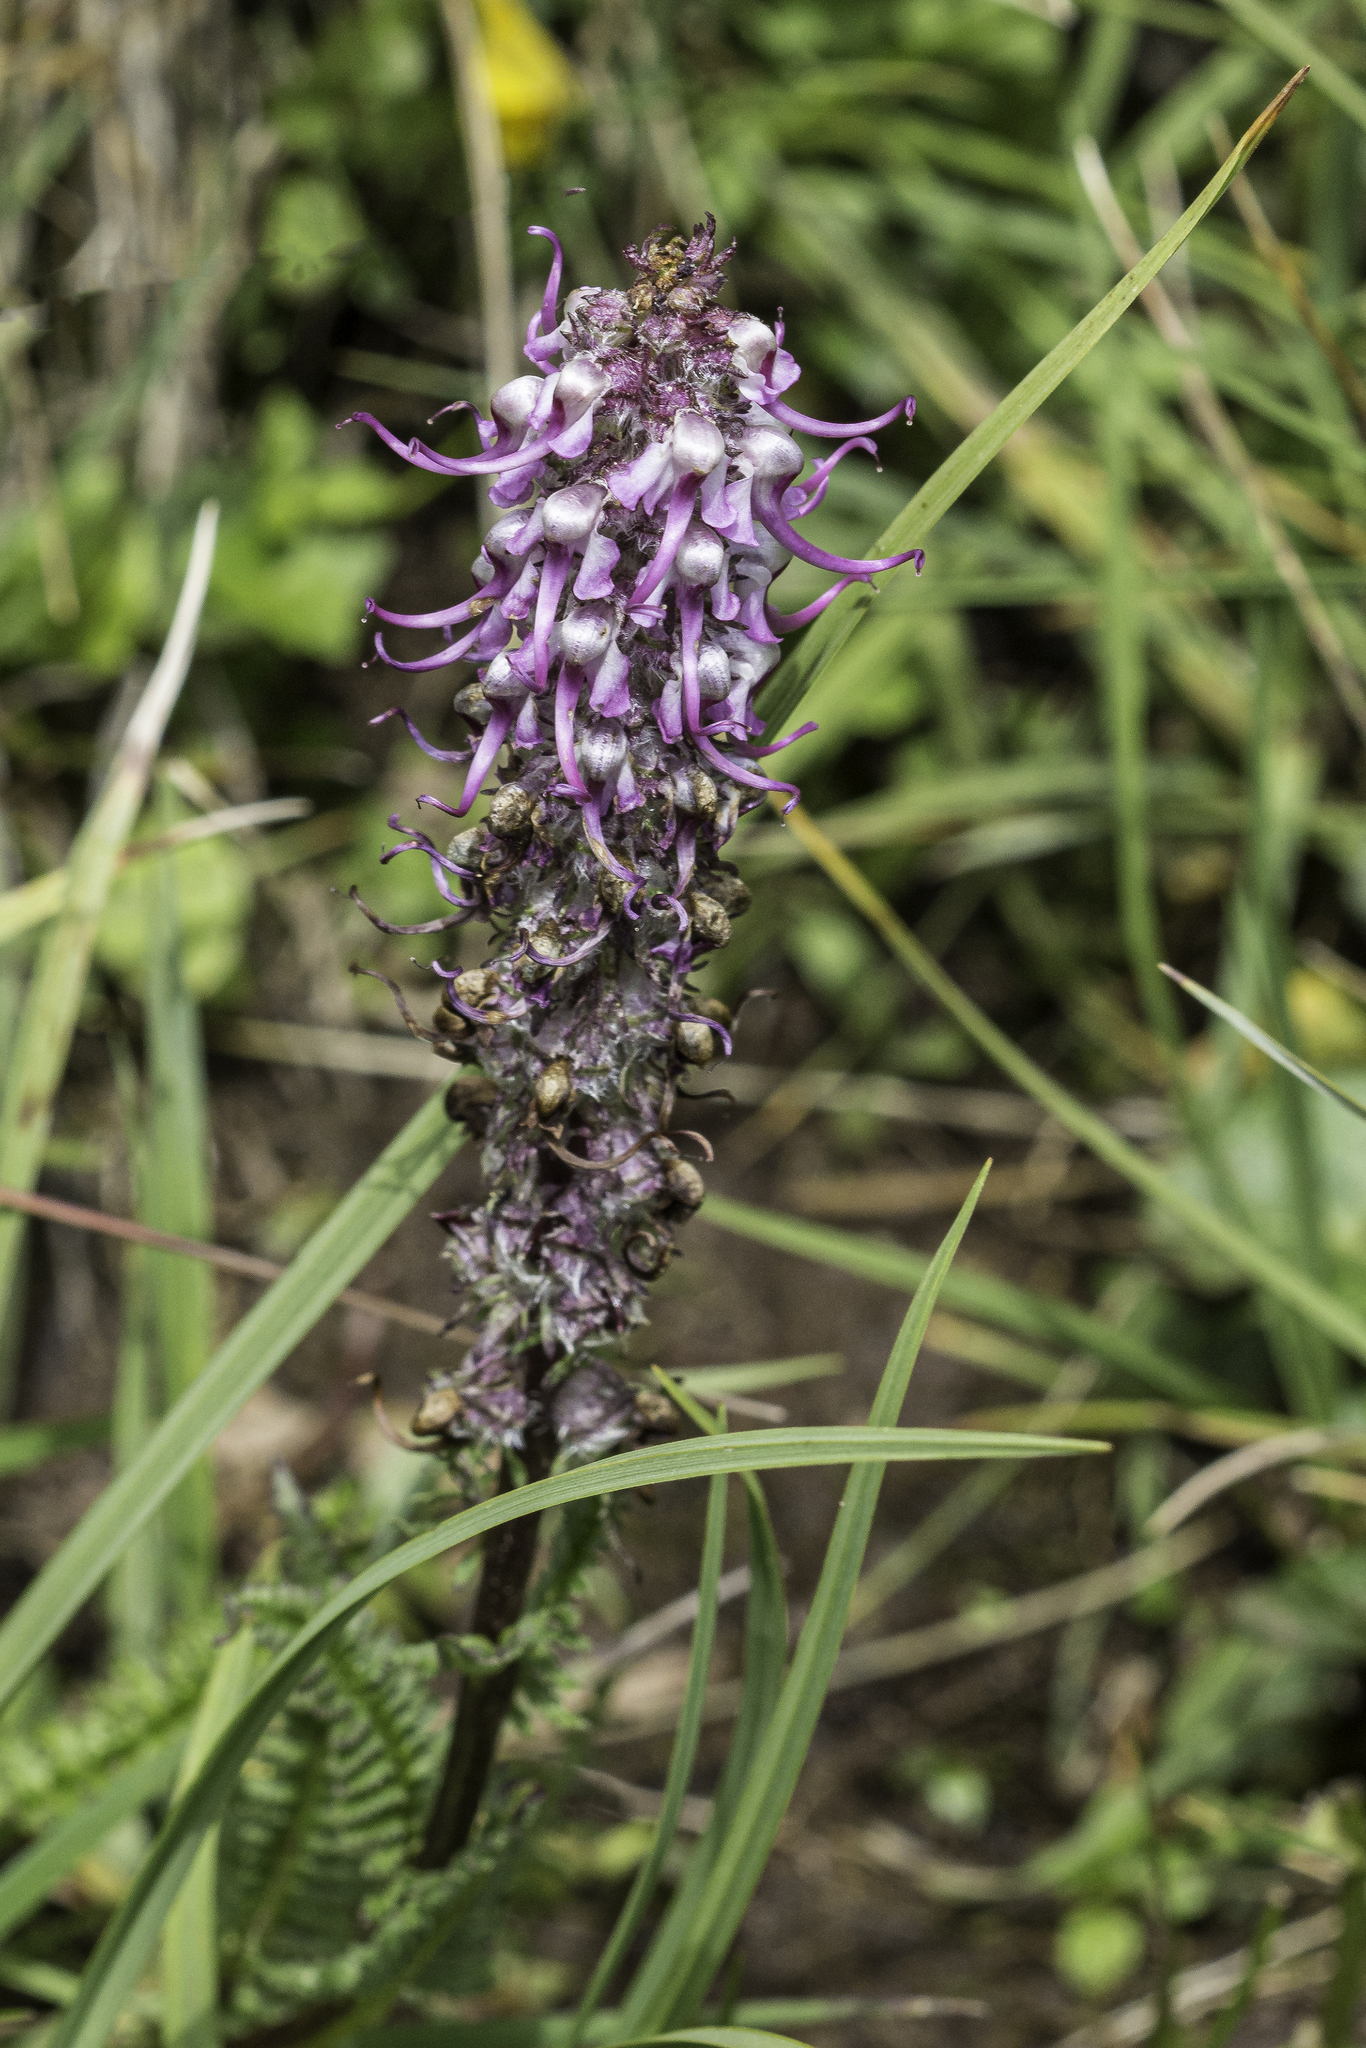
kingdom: Plantae
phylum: Tracheophyta
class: Magnoliopsida
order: Lamiales
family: Orobanchaceae
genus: Pedicularis
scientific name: Pedicularis groenlandica
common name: Elephant's-head
